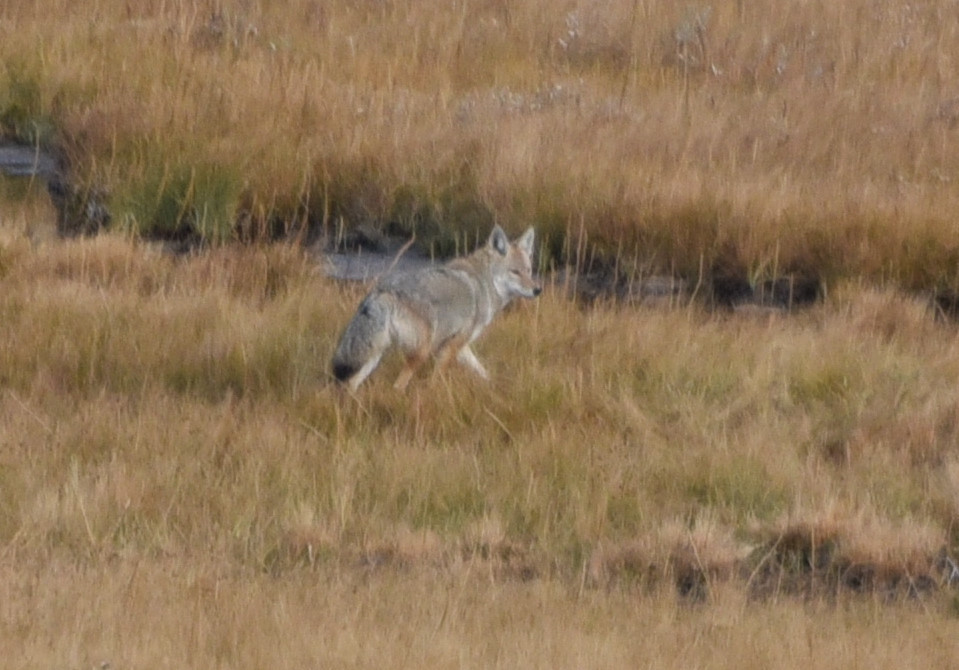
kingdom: Animalia
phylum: Chordata
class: Mammalia
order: Carnivora
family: Canidae
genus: Canis
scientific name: Canis latrans
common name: Coyote
